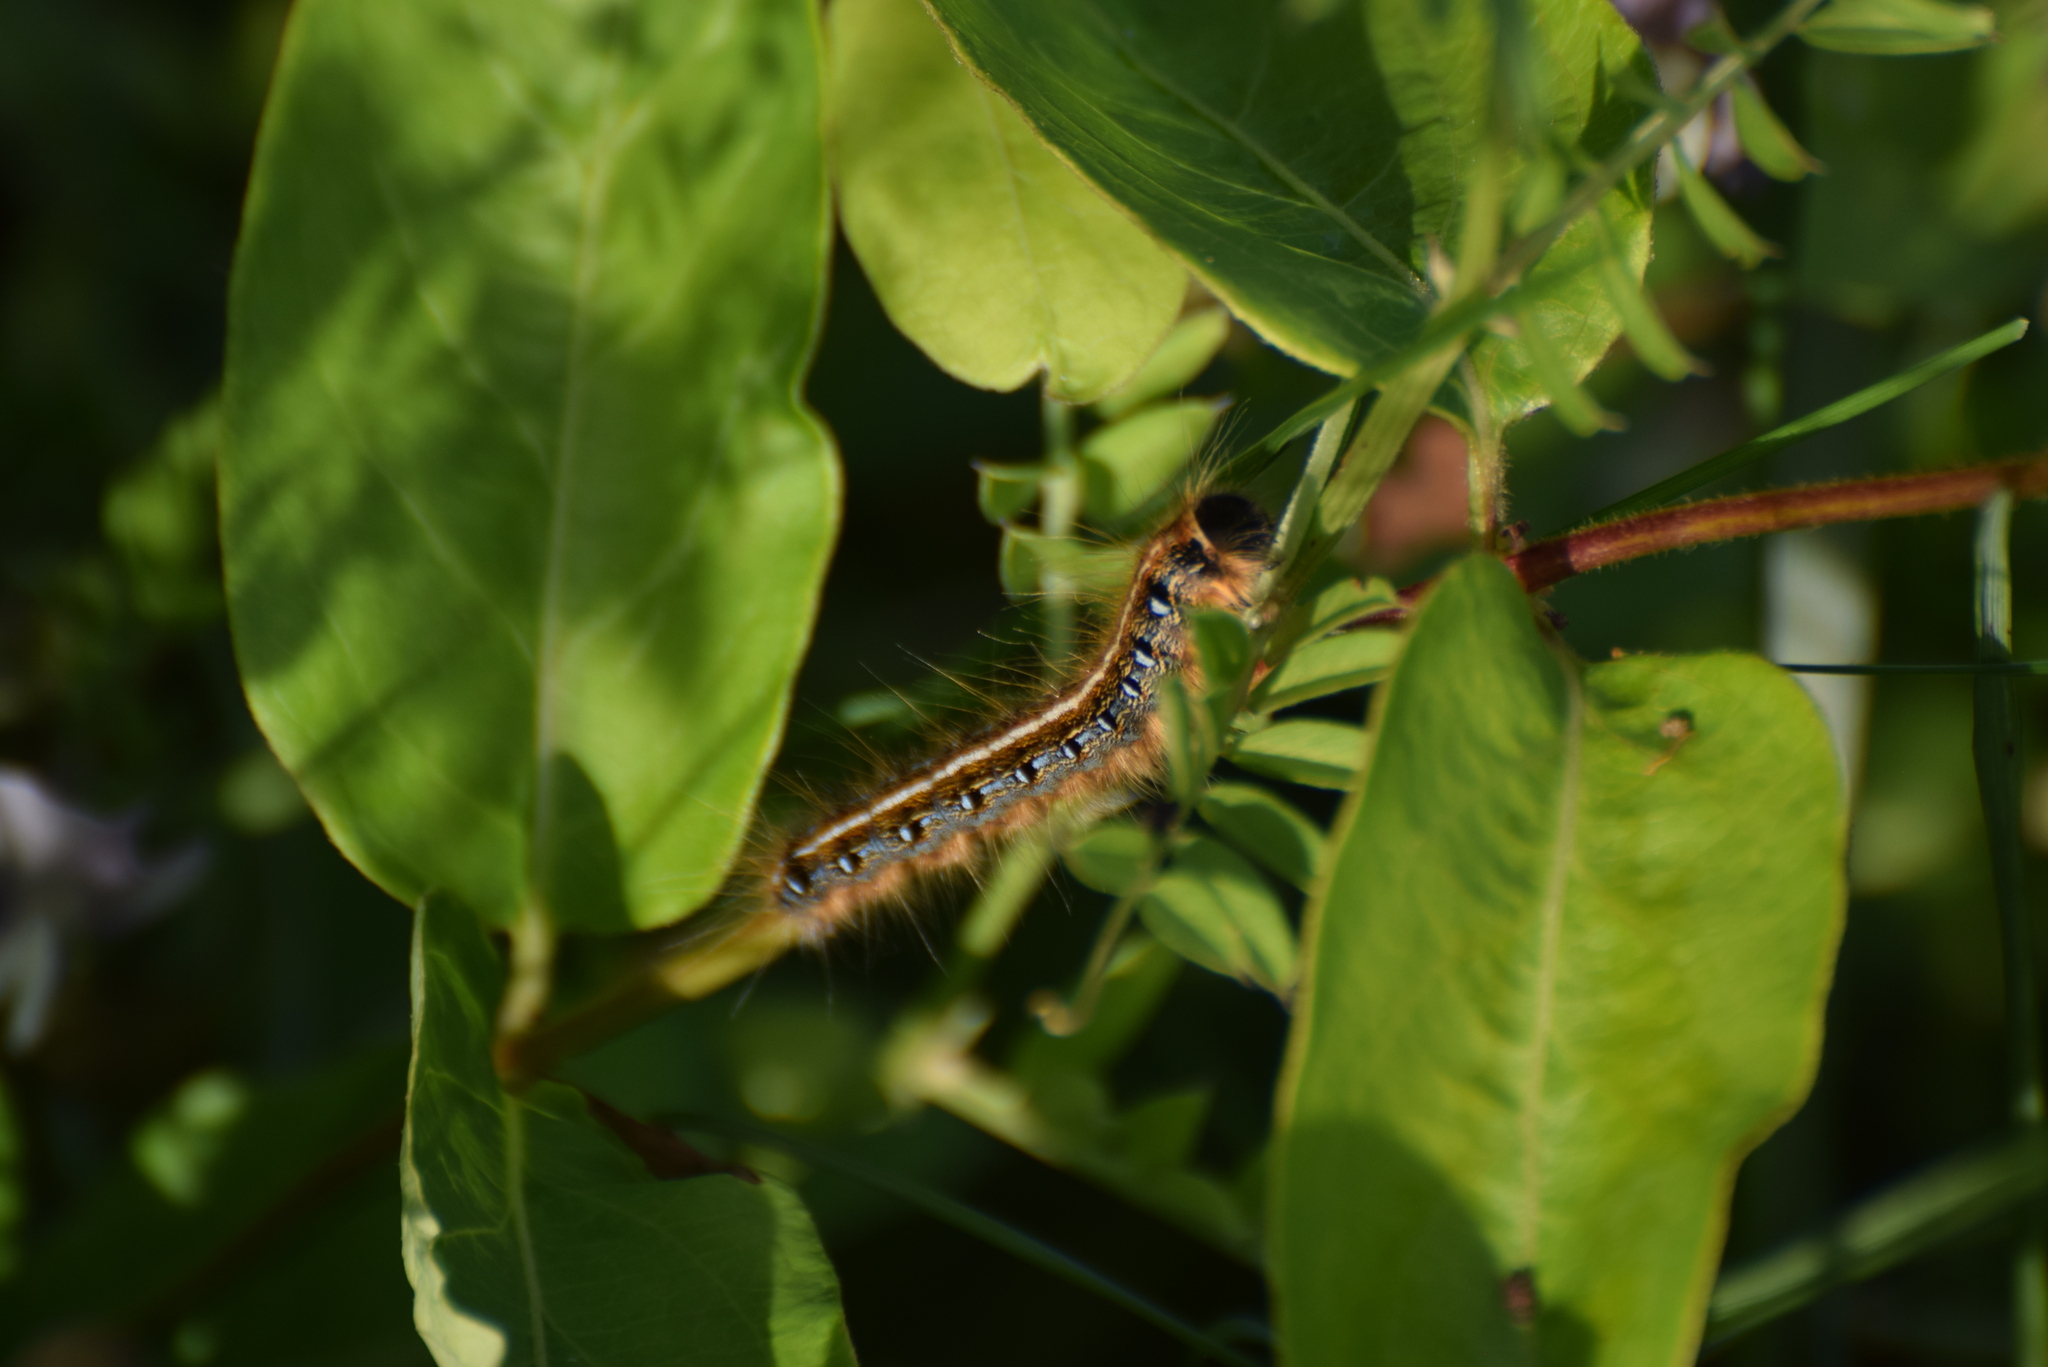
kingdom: Animalia
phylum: Arthropoda
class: Insecta
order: Lepidoptera
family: Lasiocampidae
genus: Malacosoma
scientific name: Malacosoma americana
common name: Eastern tent caterpillar moth
